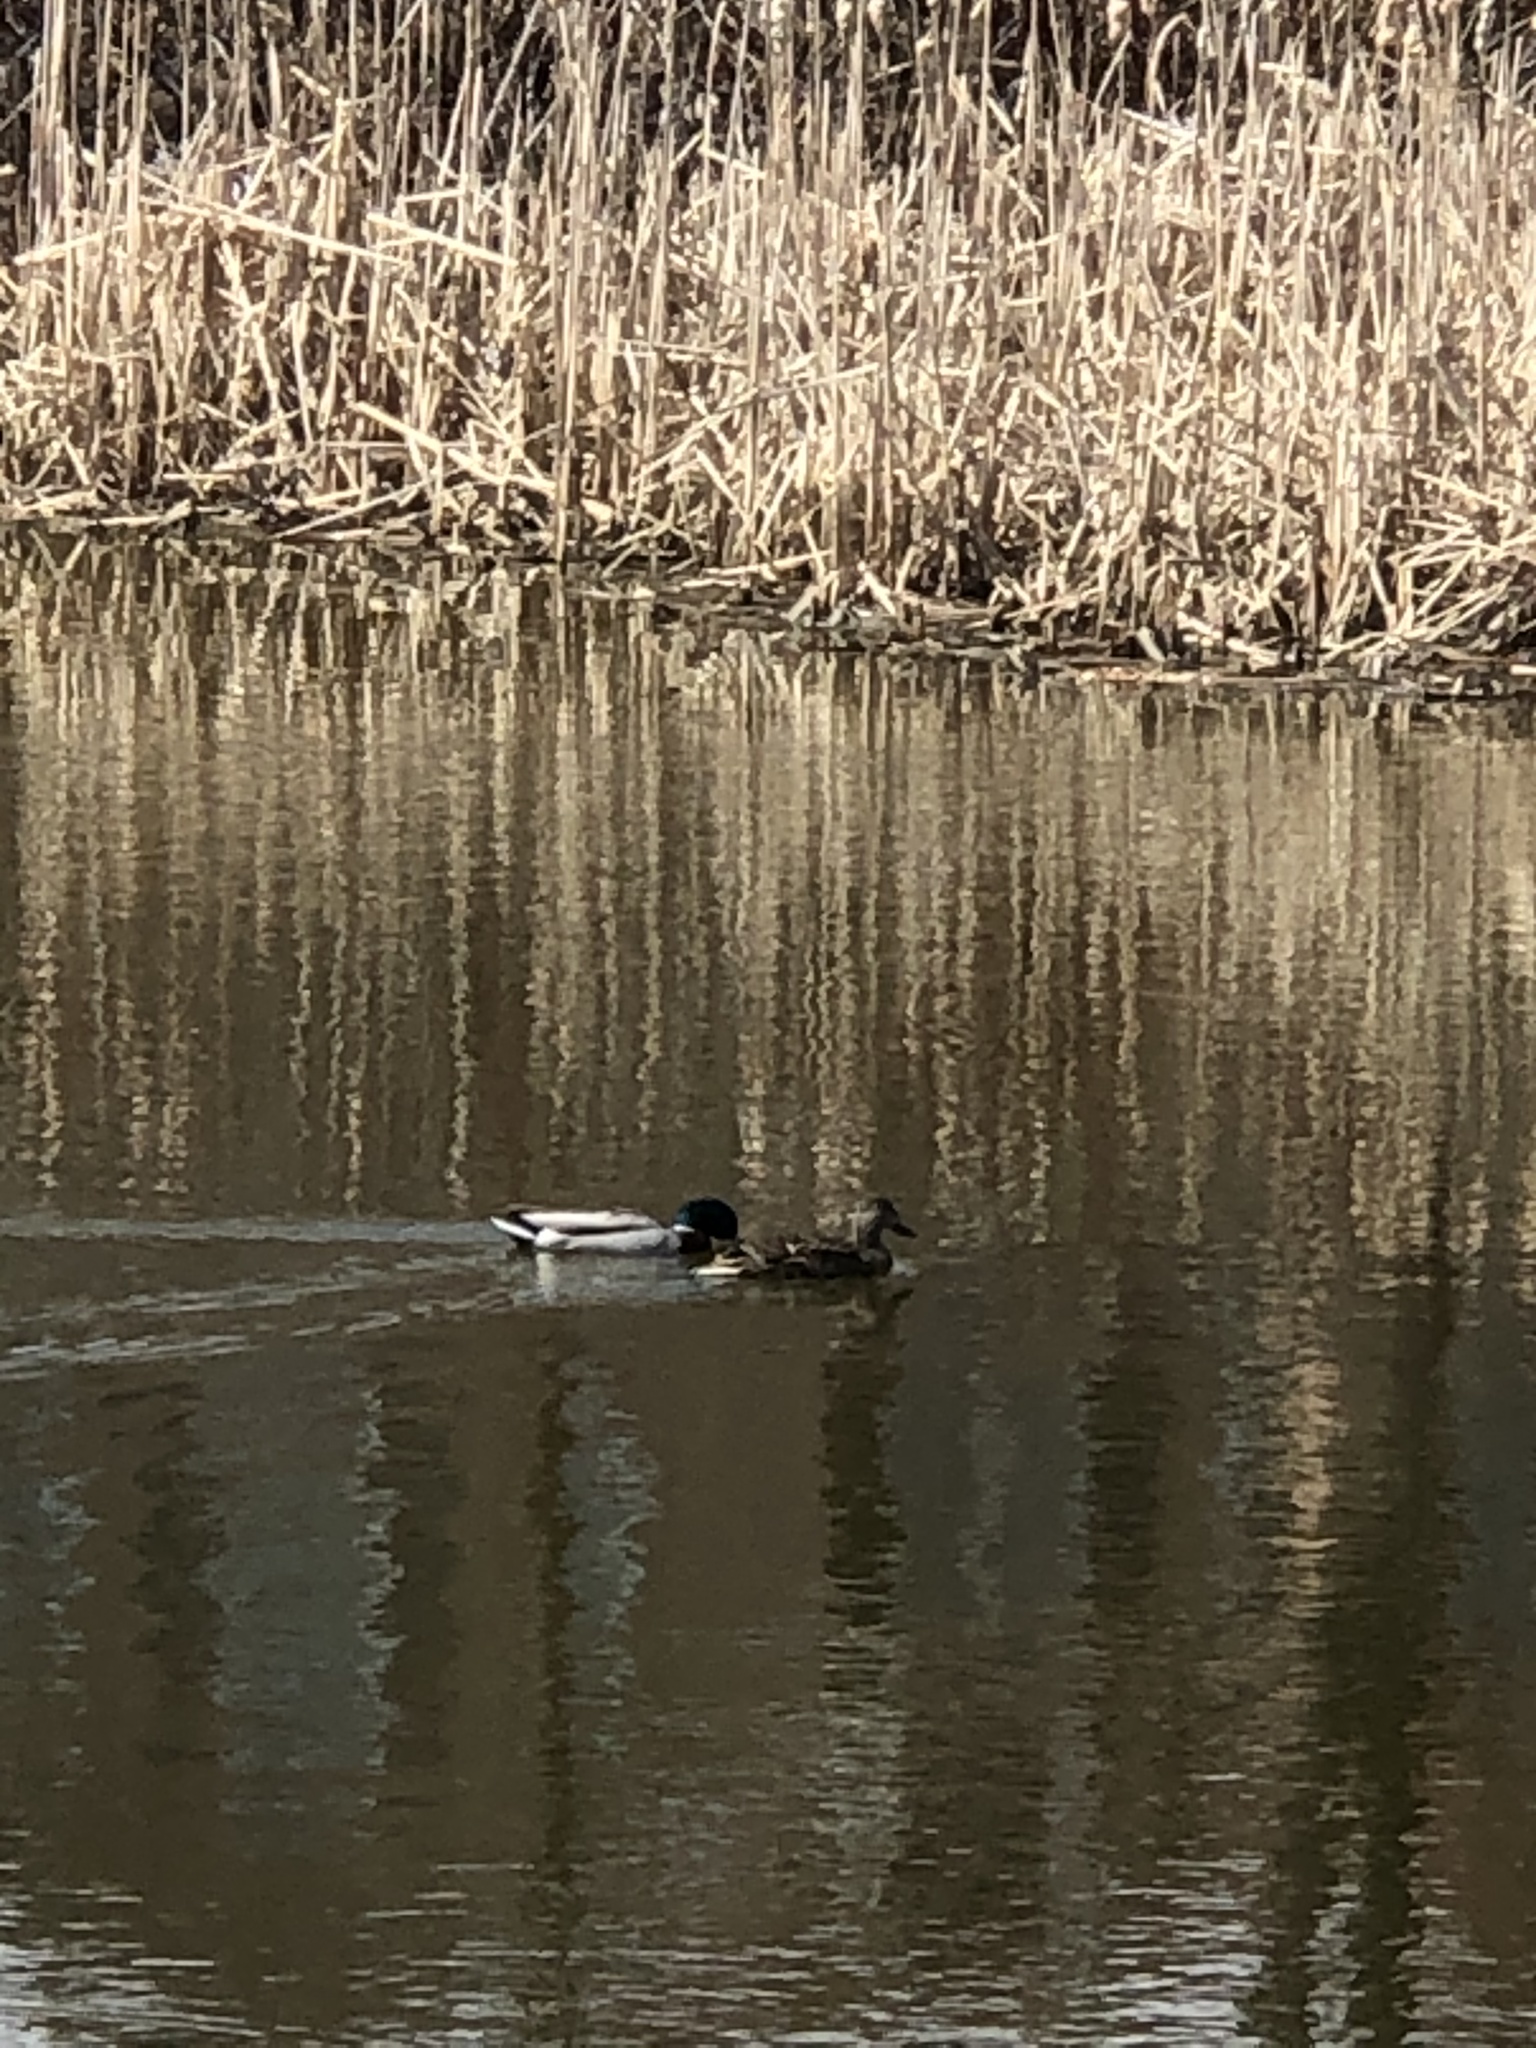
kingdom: Animalia
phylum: Chordata
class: Aves
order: Anseriformes
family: Anatidae
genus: Anas
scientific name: Anas platyrhynchos
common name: Mallard
